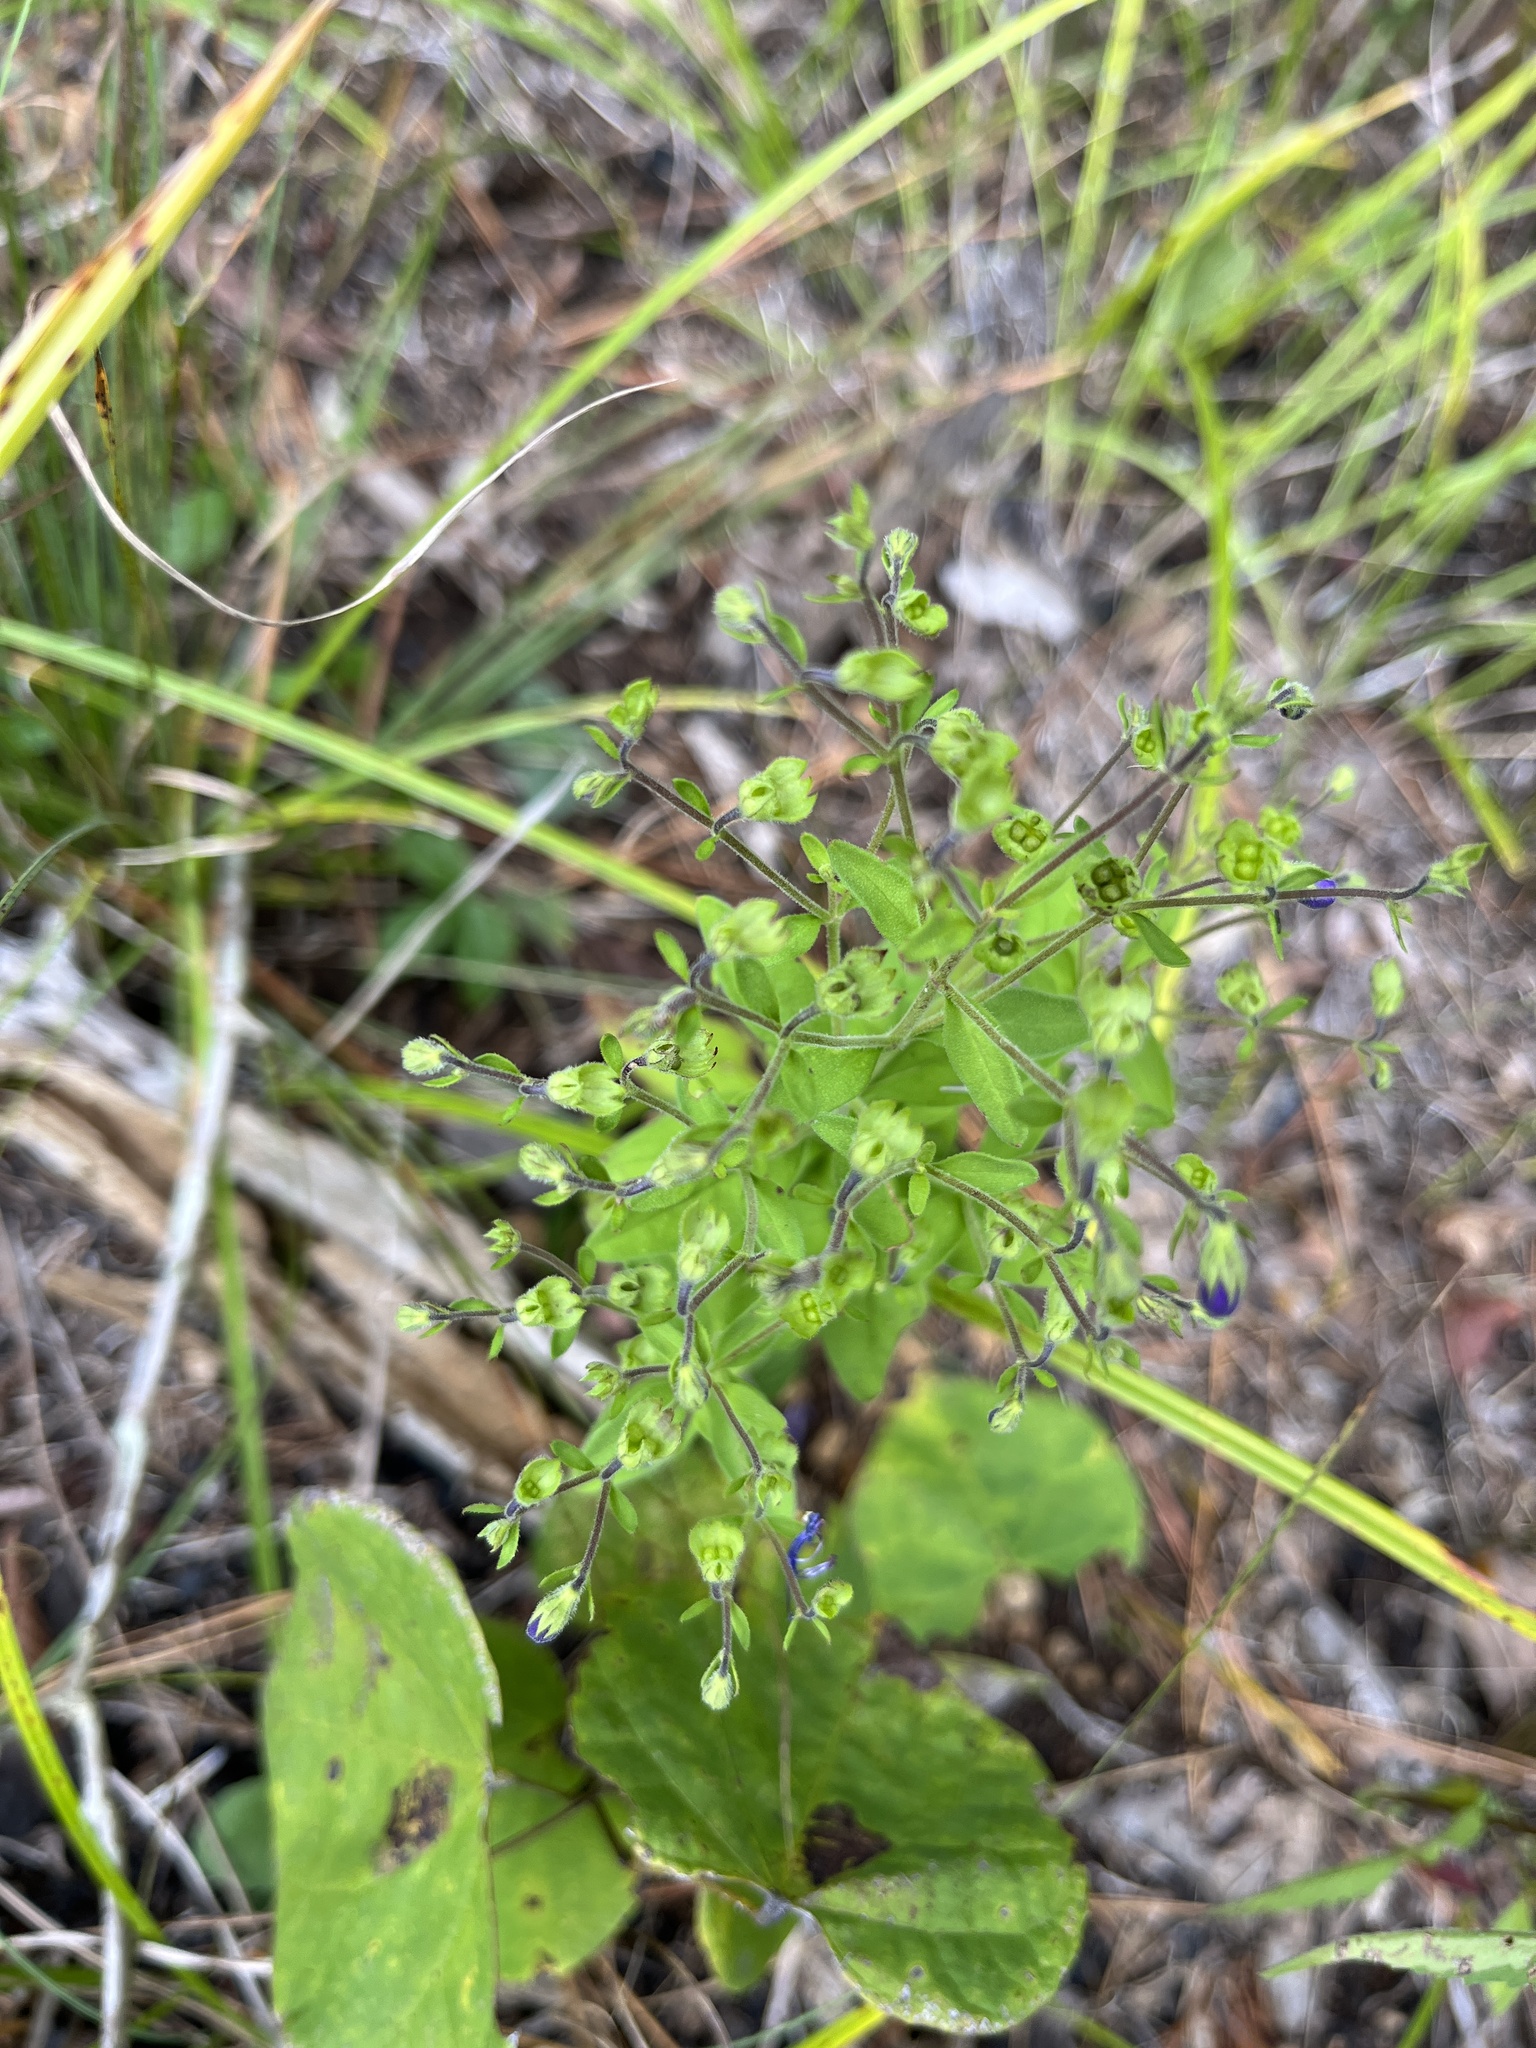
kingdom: Plantae
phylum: Tracheophyta
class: Magnoliopsida
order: Lamiales
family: Lamiaceae
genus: Trichostema
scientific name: Trichostema dichotomum
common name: Bastard pennyroyal
